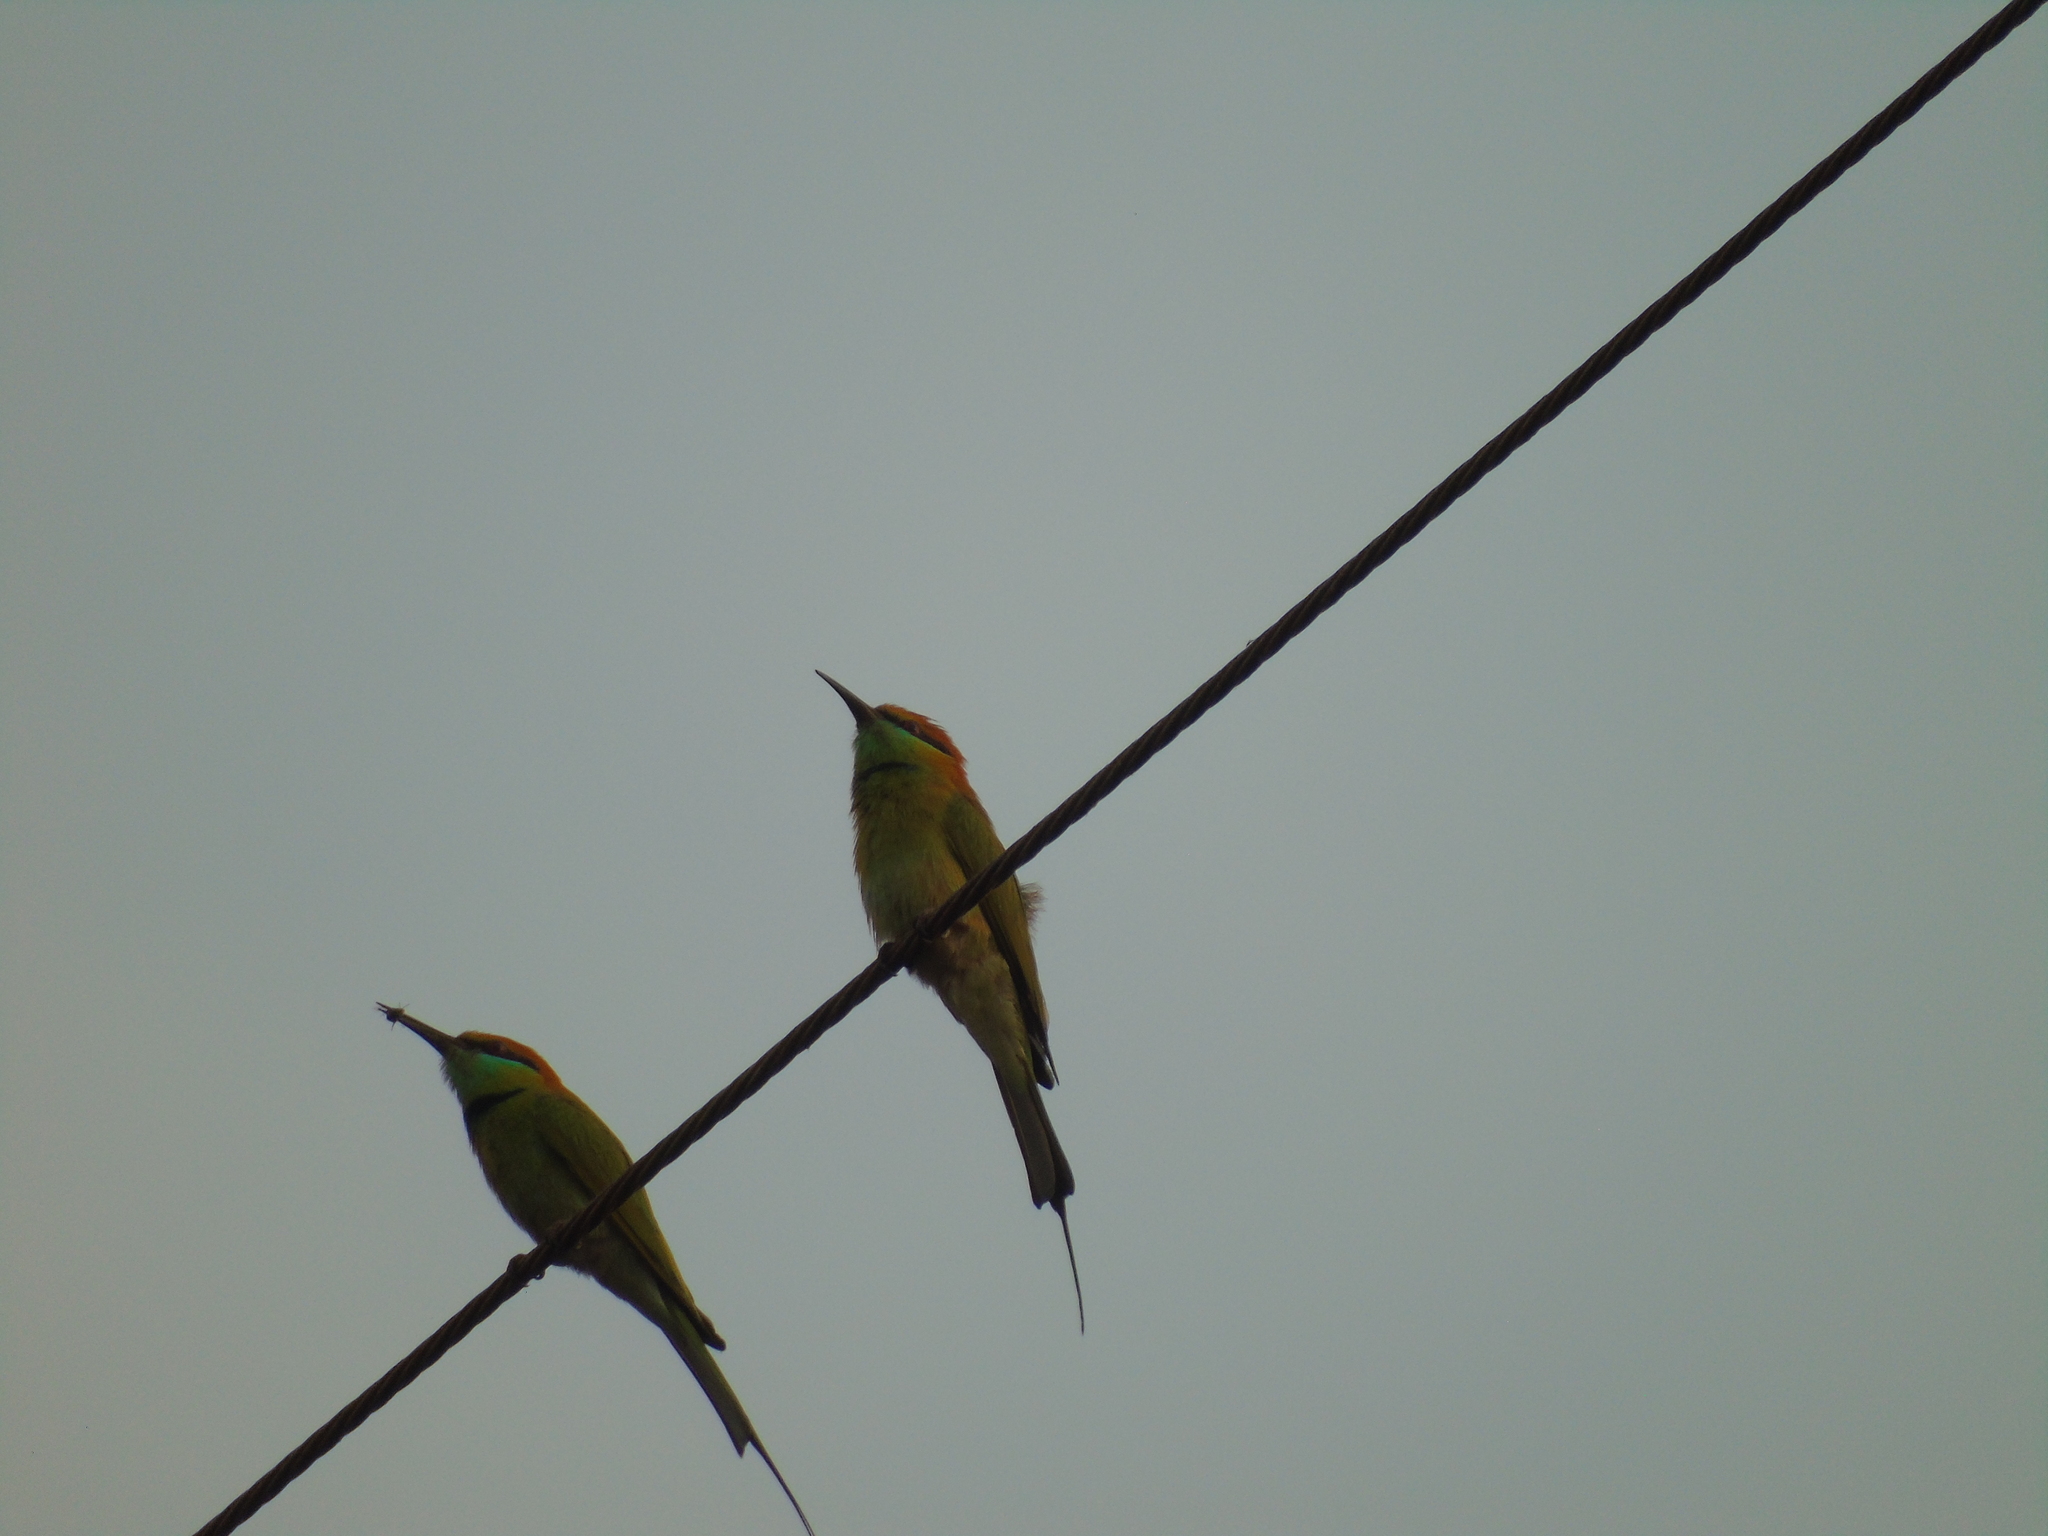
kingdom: Animalia
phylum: Chordata
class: Aves
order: Coraciiformes
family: Meropidae
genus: Merops
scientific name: Merops orientalis
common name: Green bee-eater
